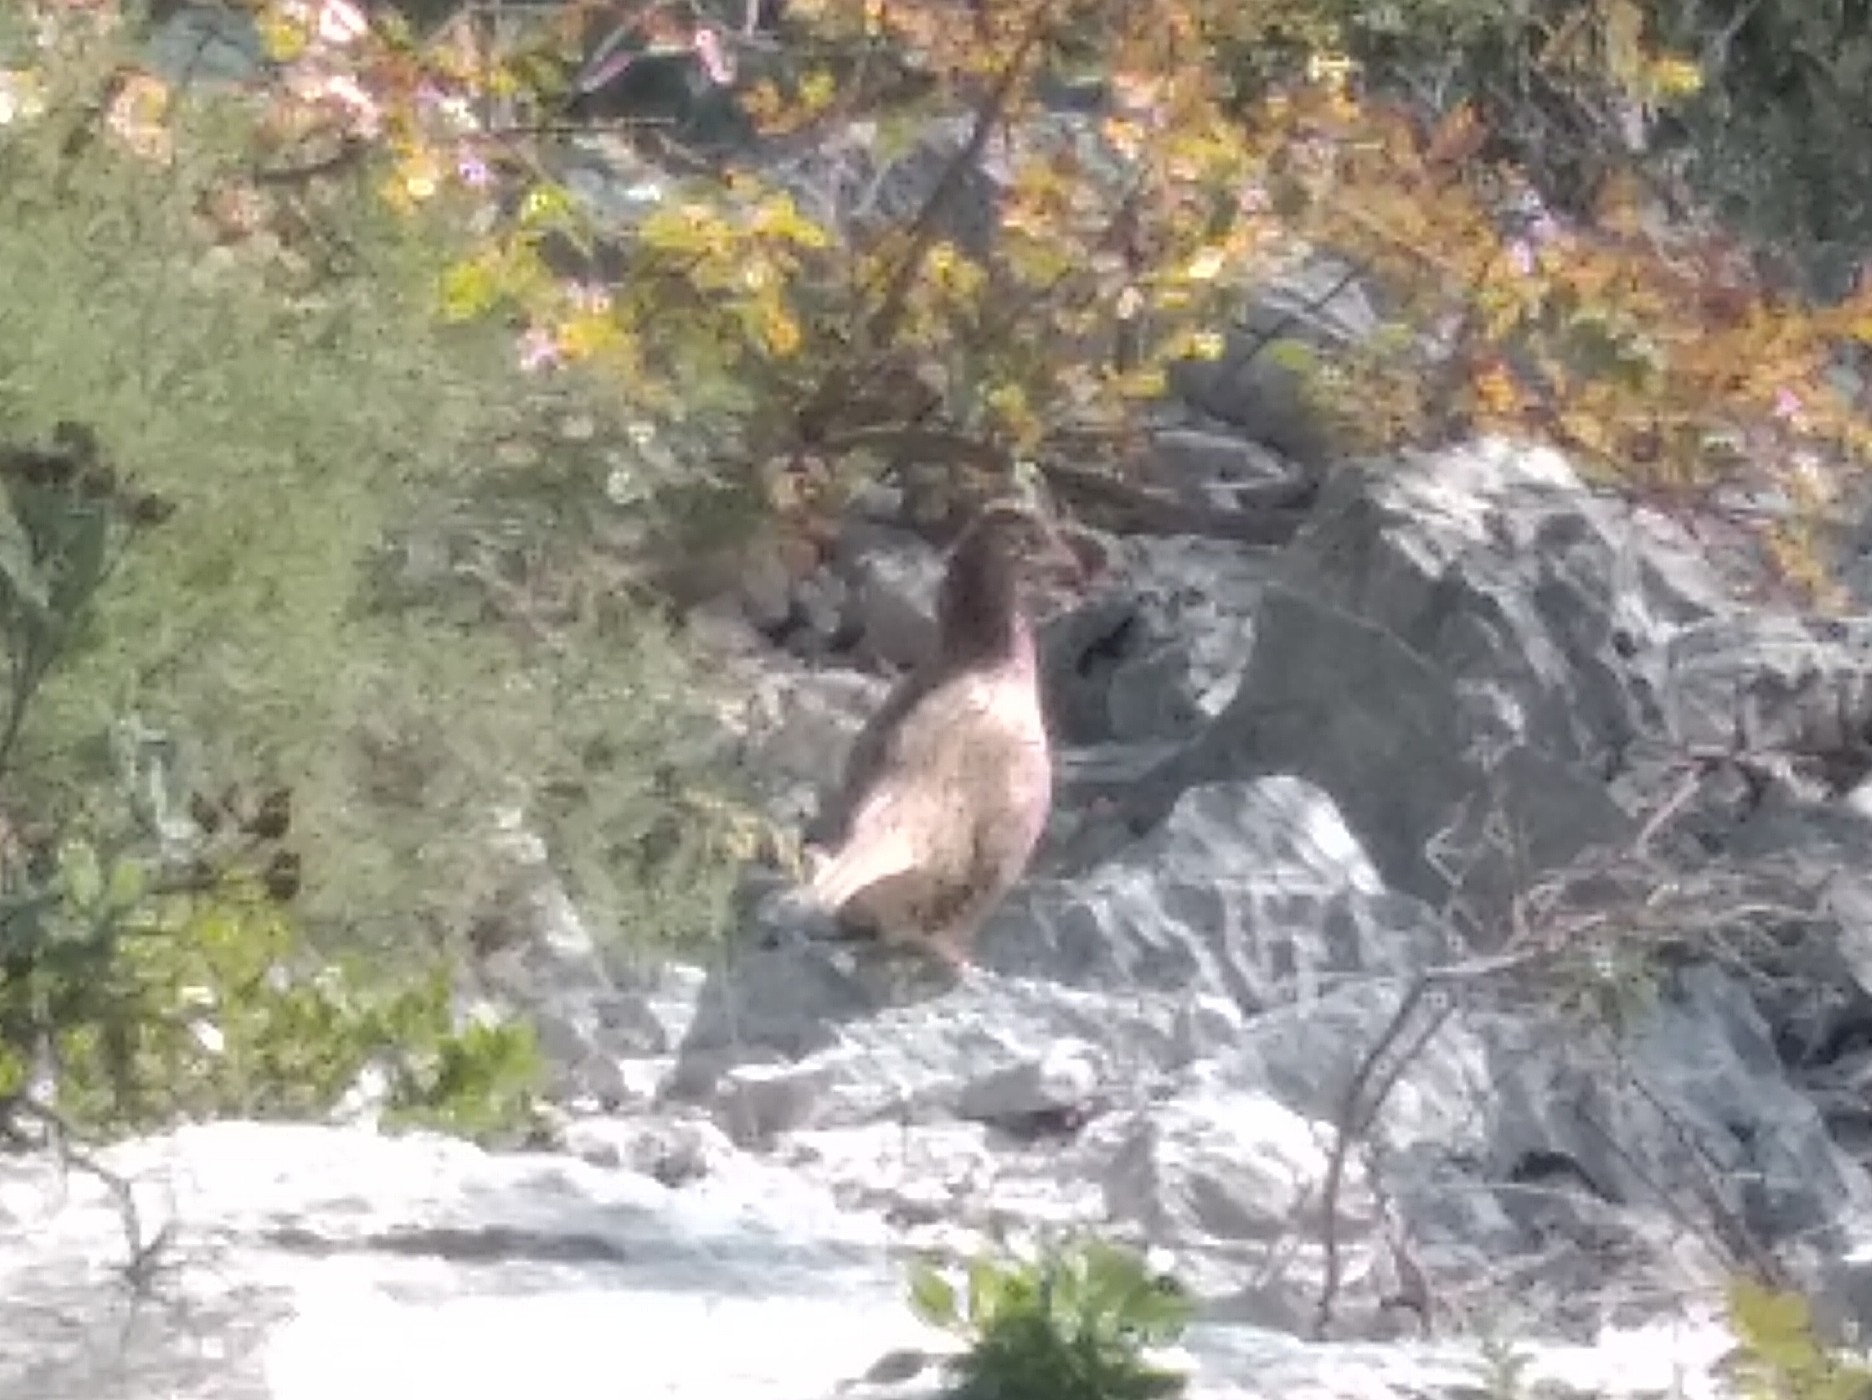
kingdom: Animalia
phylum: Chordata
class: Aves
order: Galliformes
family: Phasianidae
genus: Phasianus
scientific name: Phasianus colchicus
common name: Common pheasant
